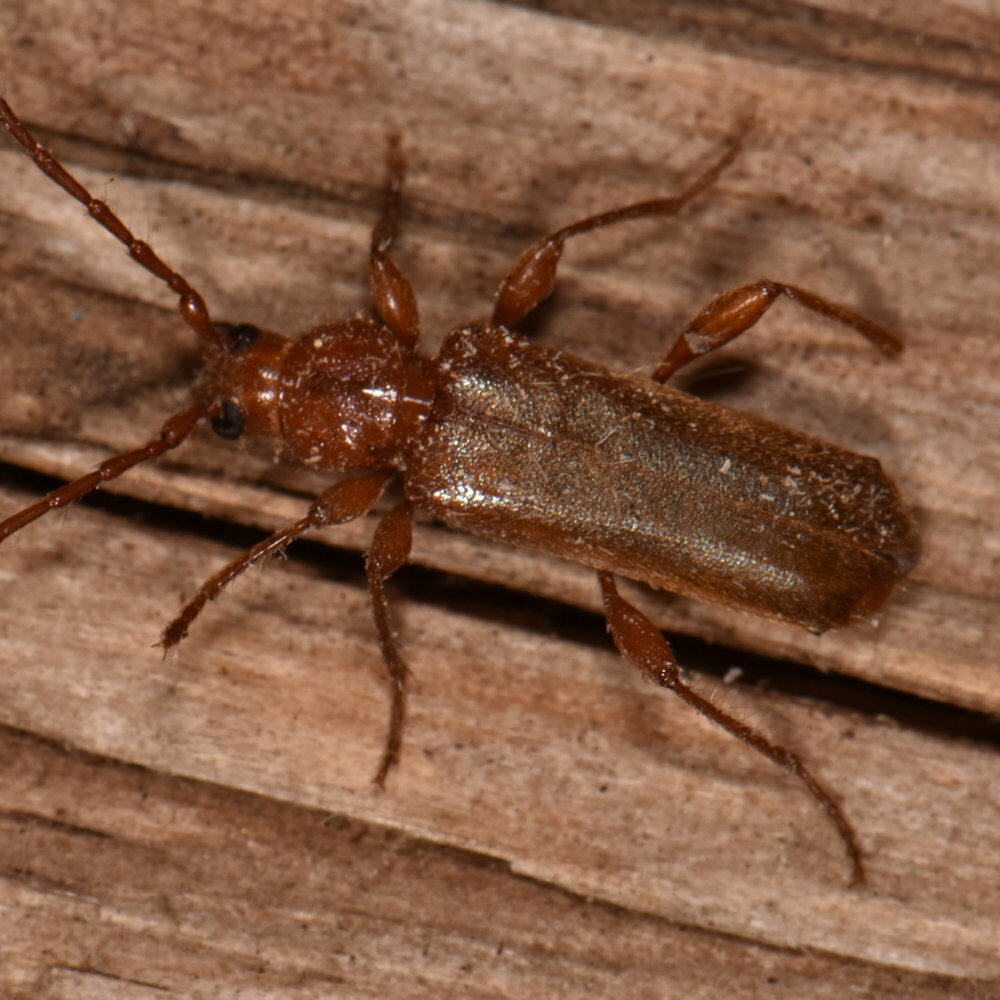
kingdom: Animalia
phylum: Arthropoda
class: Insecta
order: Coleoptera
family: Cerambycidae
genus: Phymatodes
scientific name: Phymatodes testaceus
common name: Long-horned beetle
